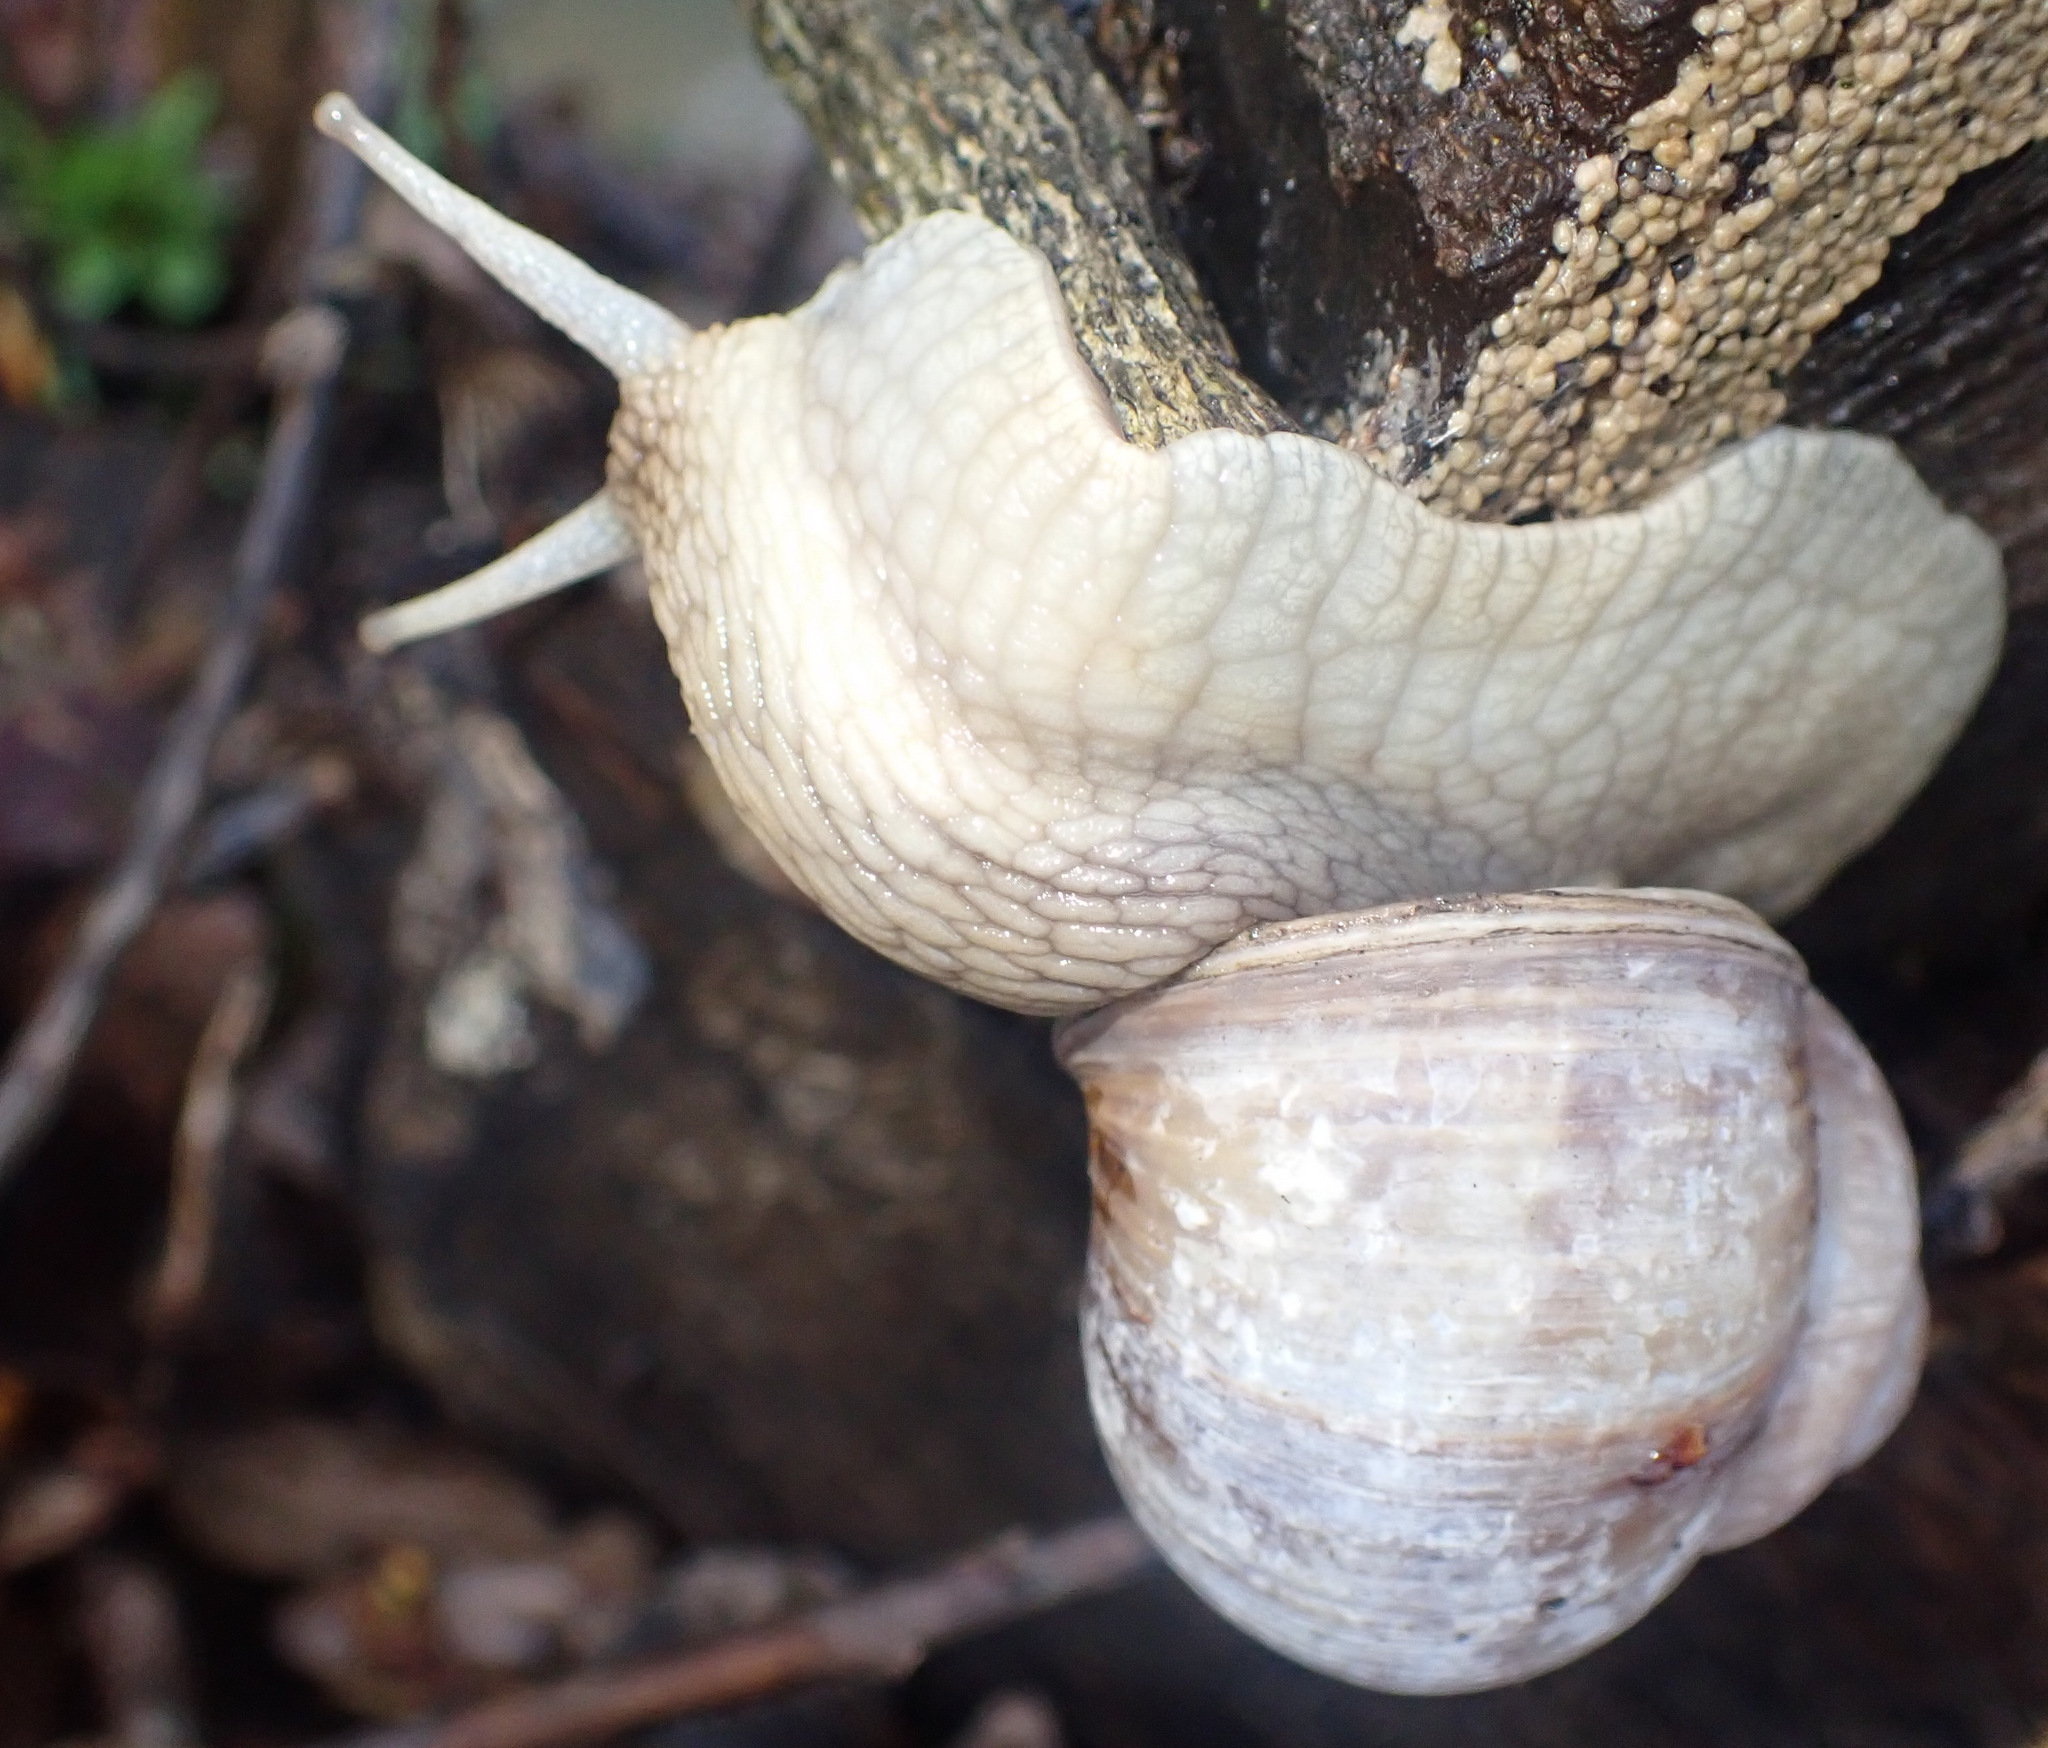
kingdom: Animalia
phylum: Mollusca
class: Gastropoda
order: Stylommatophora
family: Helicidae
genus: Helix
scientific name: Helix pomatia
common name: Roman snail
